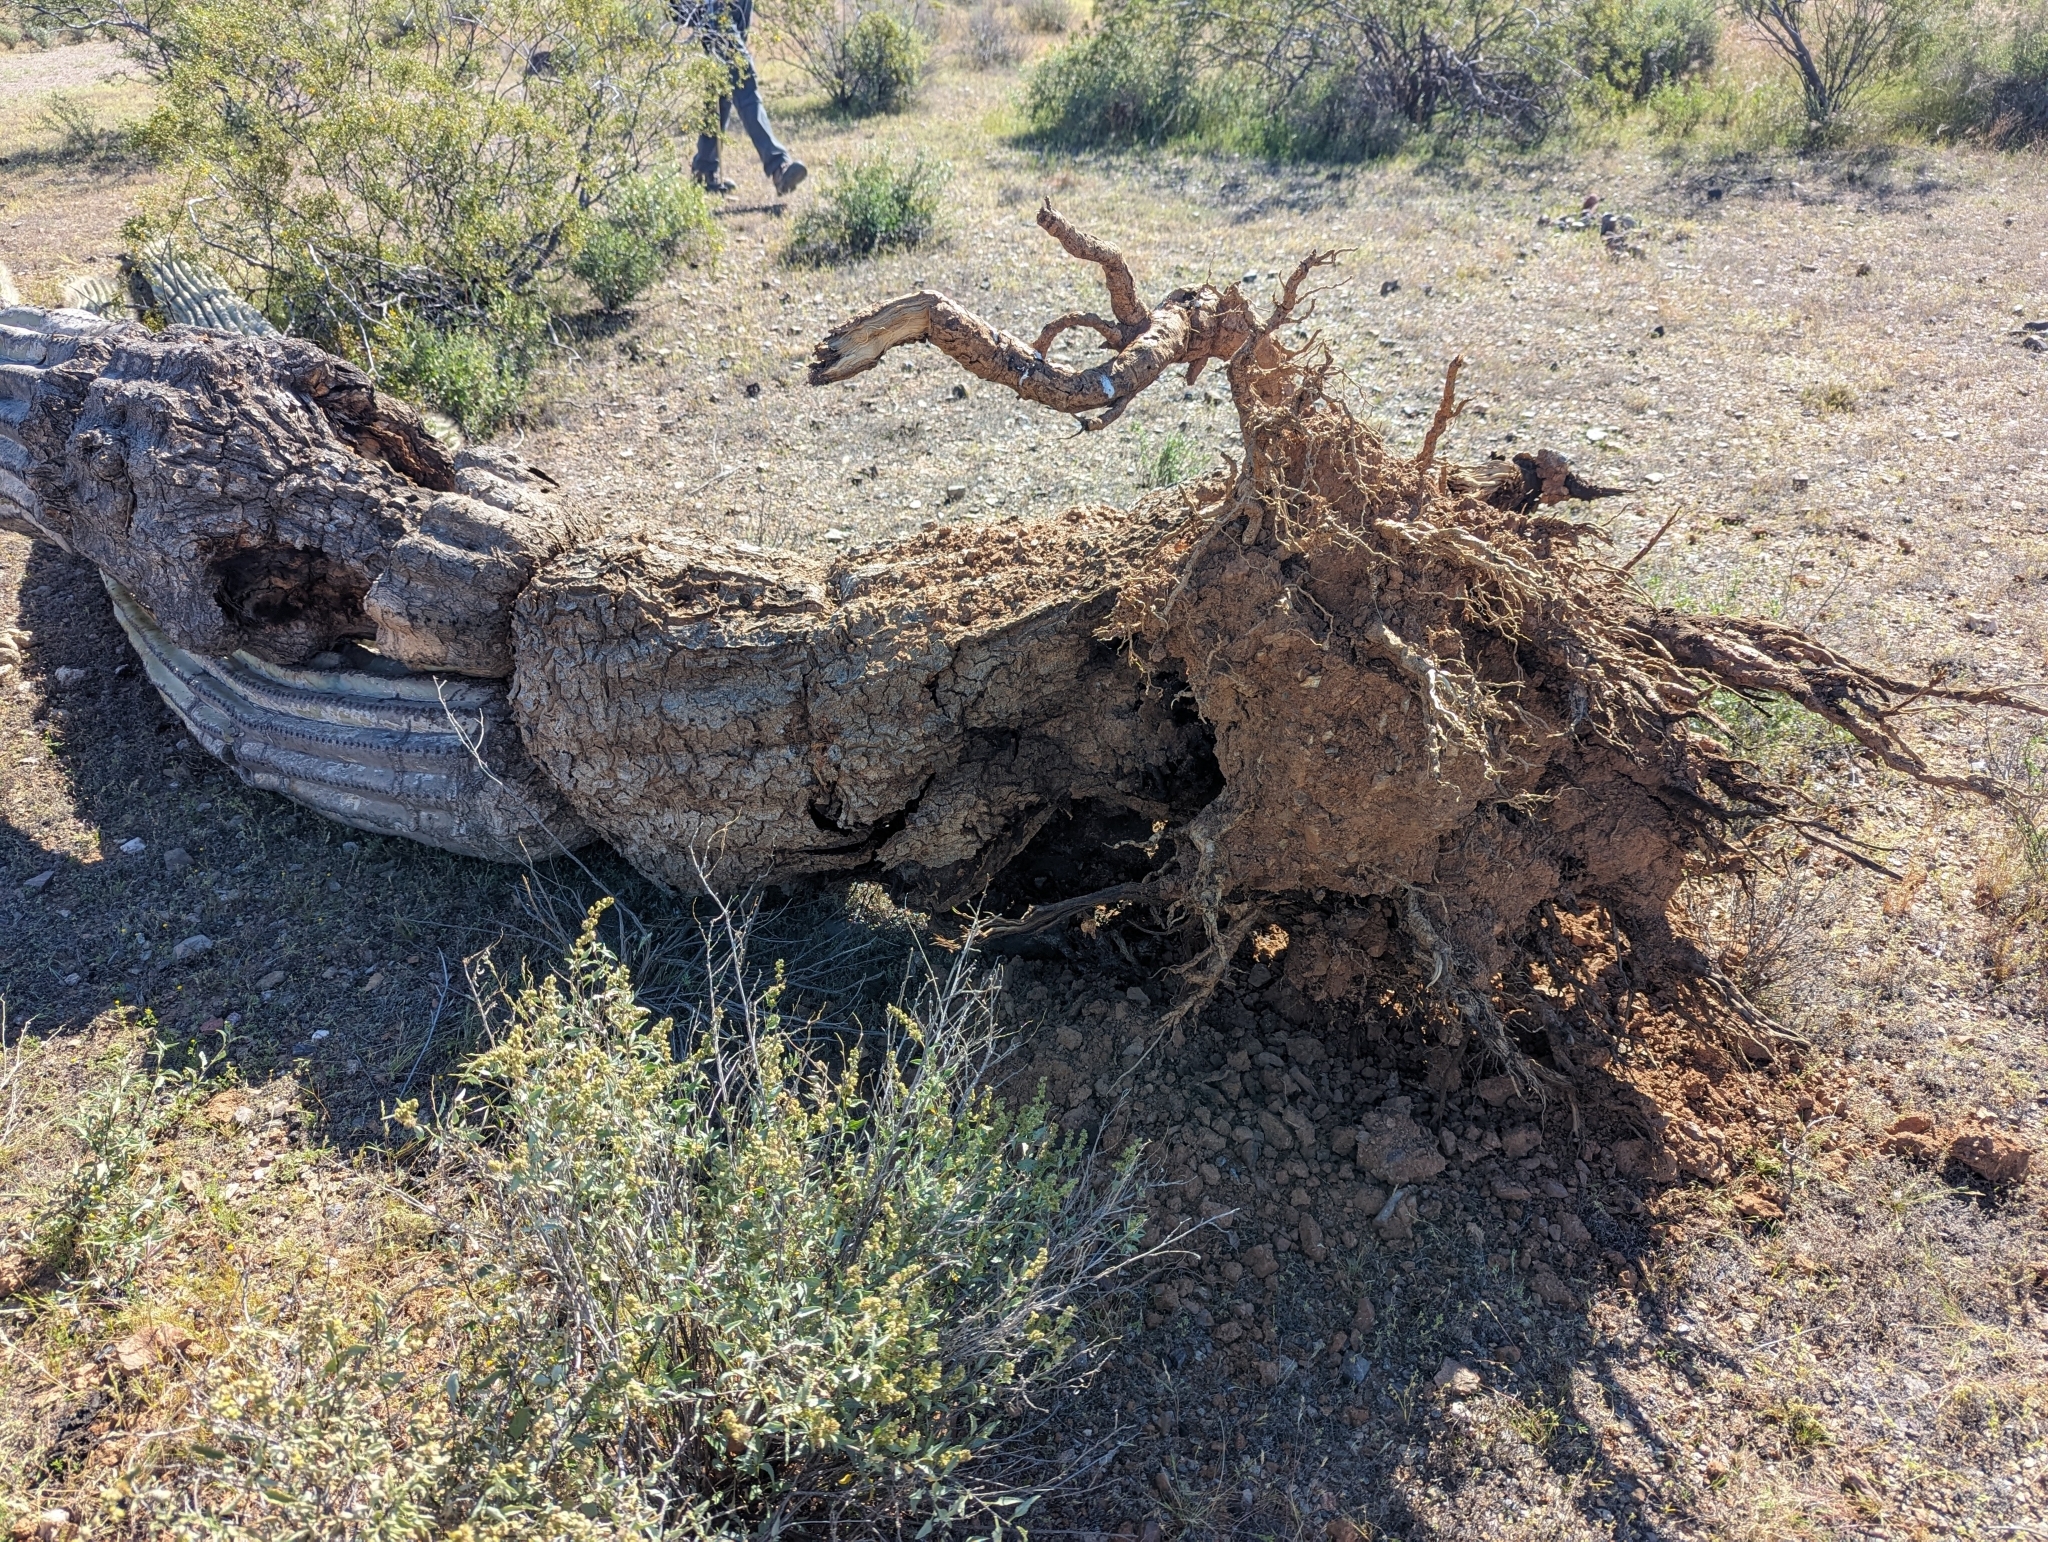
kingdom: Plantae
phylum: Tracheophyta
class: Magnoliopsida
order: Caryophyllales
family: Cactaceae
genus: Carnegiea
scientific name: Carnegiea gigantea
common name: Saguaro
